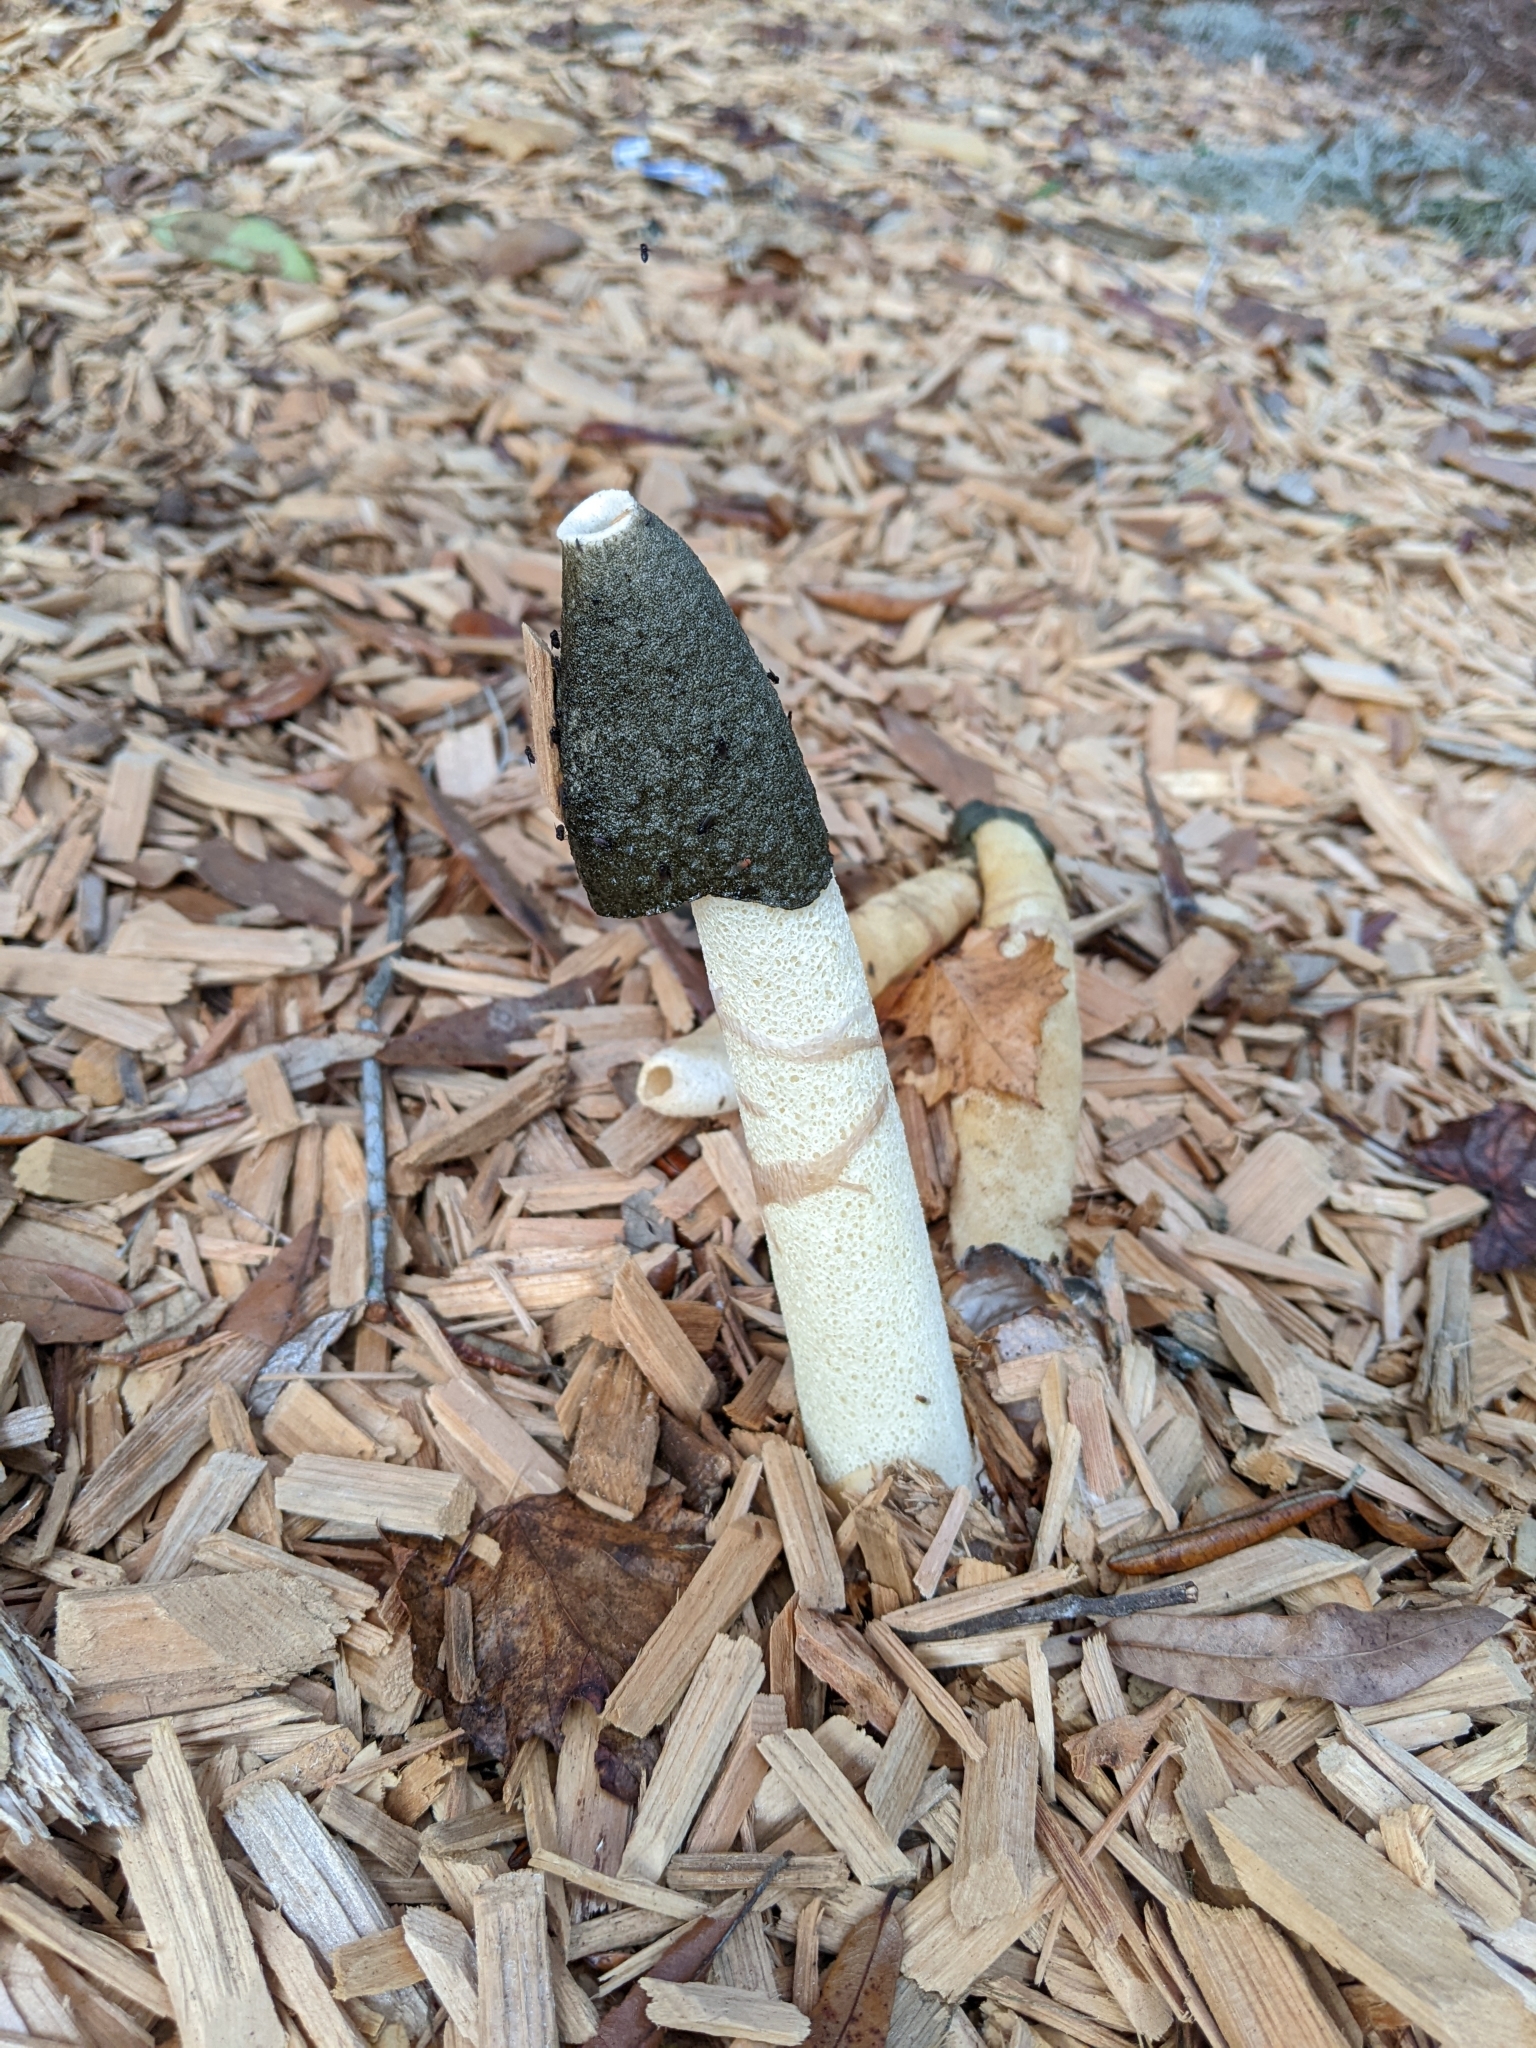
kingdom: Fungi
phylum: Basidiomycota
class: Agaricomycetes
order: Phallales
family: Phallaceae
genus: Phallus
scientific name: Phallus ravenelii
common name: Ravenel's stinkhorn
